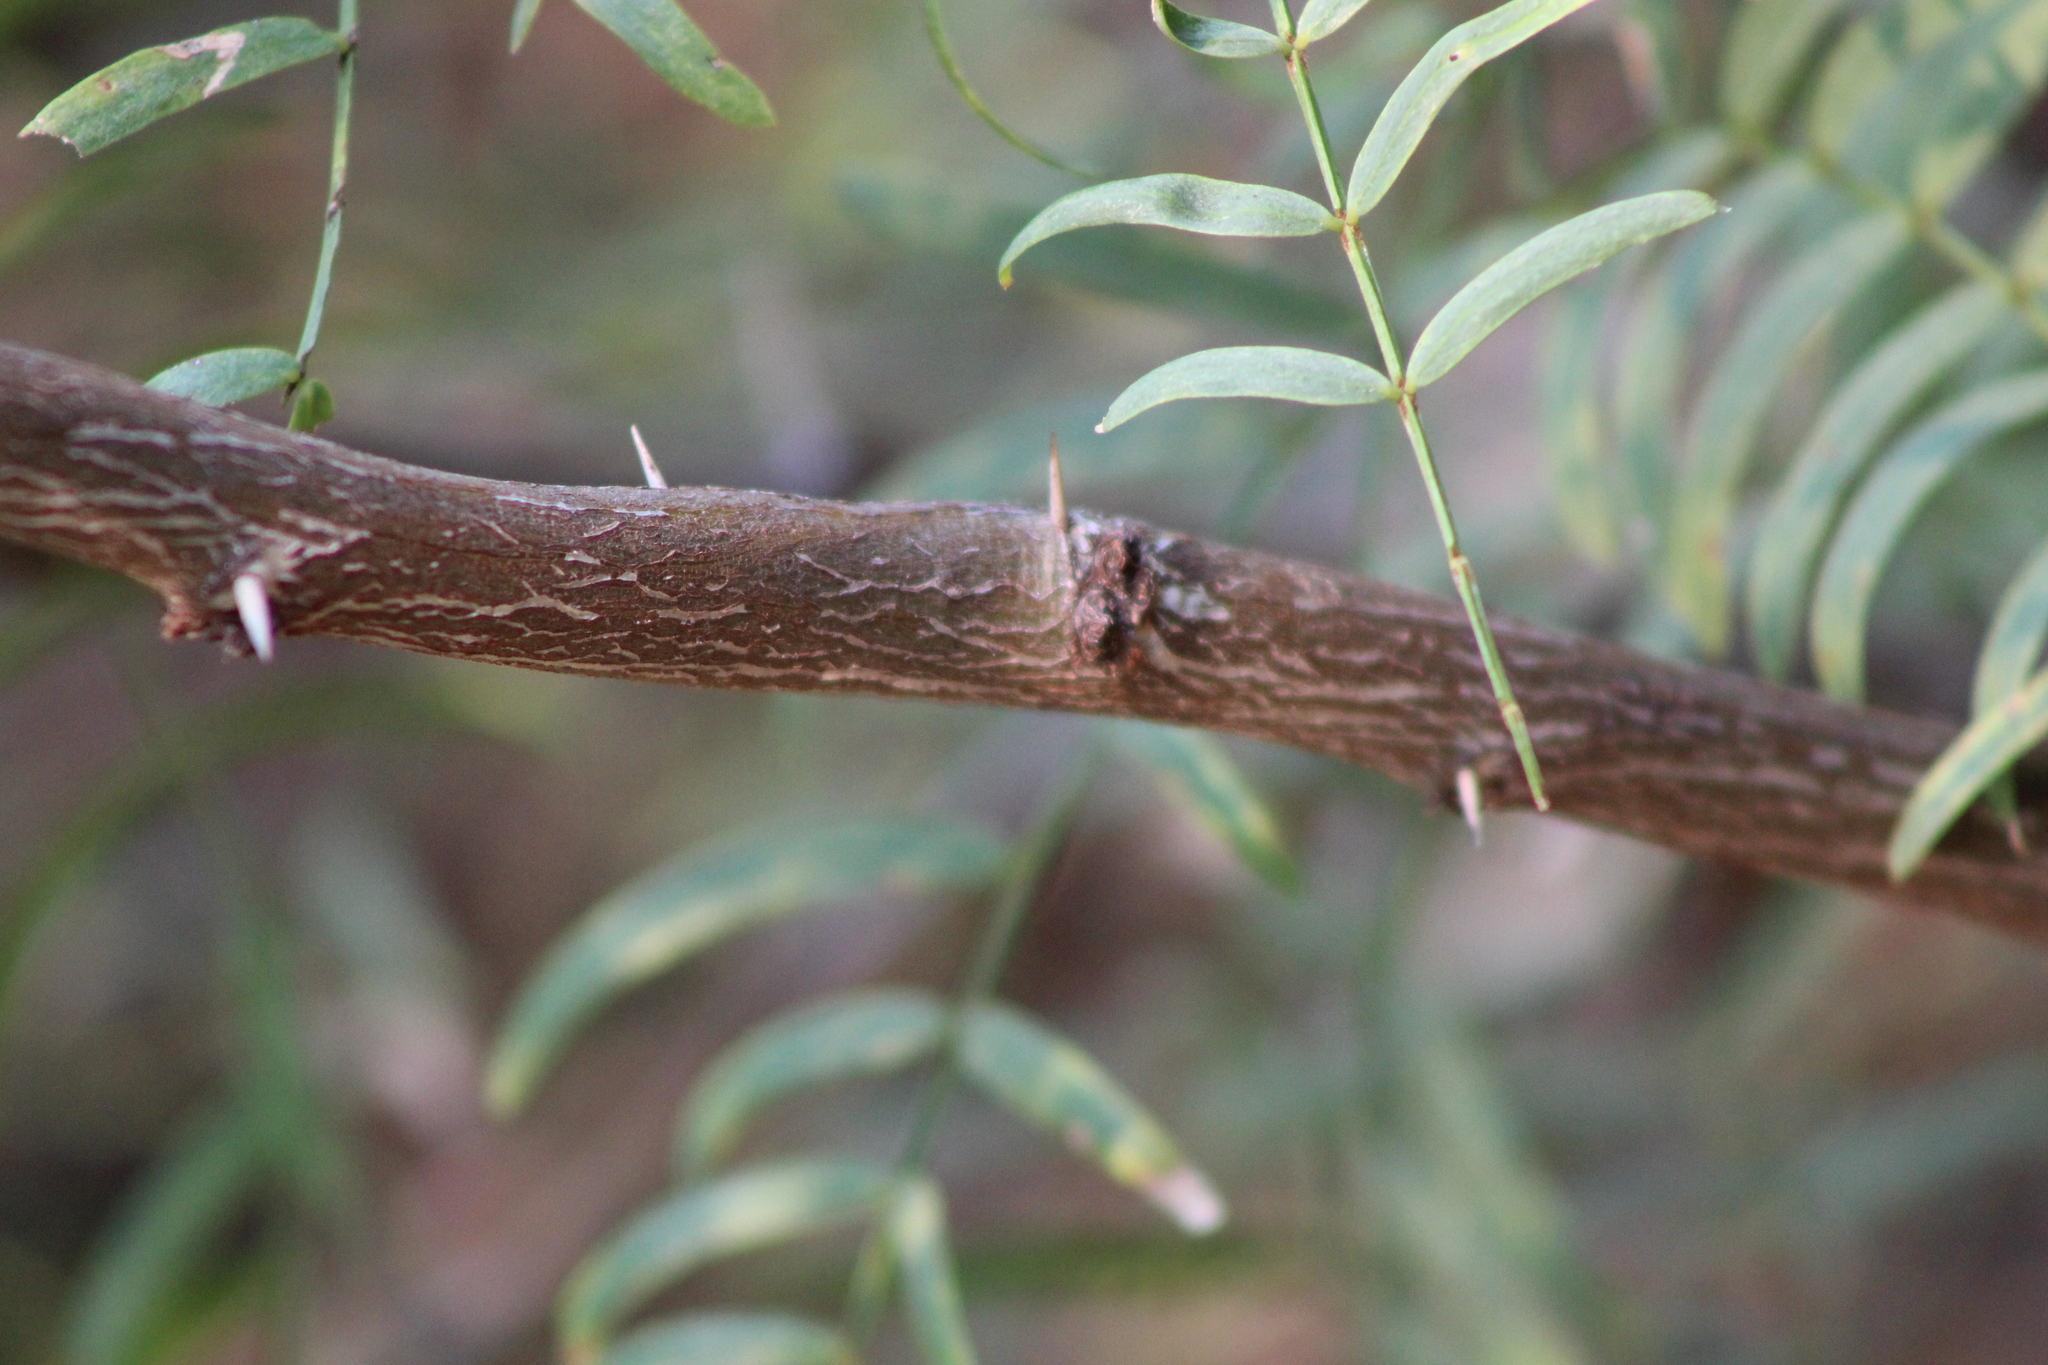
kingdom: Plantae
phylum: Tracheophyta
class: Magnoliopsida
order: Fabales
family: Fabaceae
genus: Prosopis
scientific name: Prosopis glandulosa
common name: Honey mesquite
